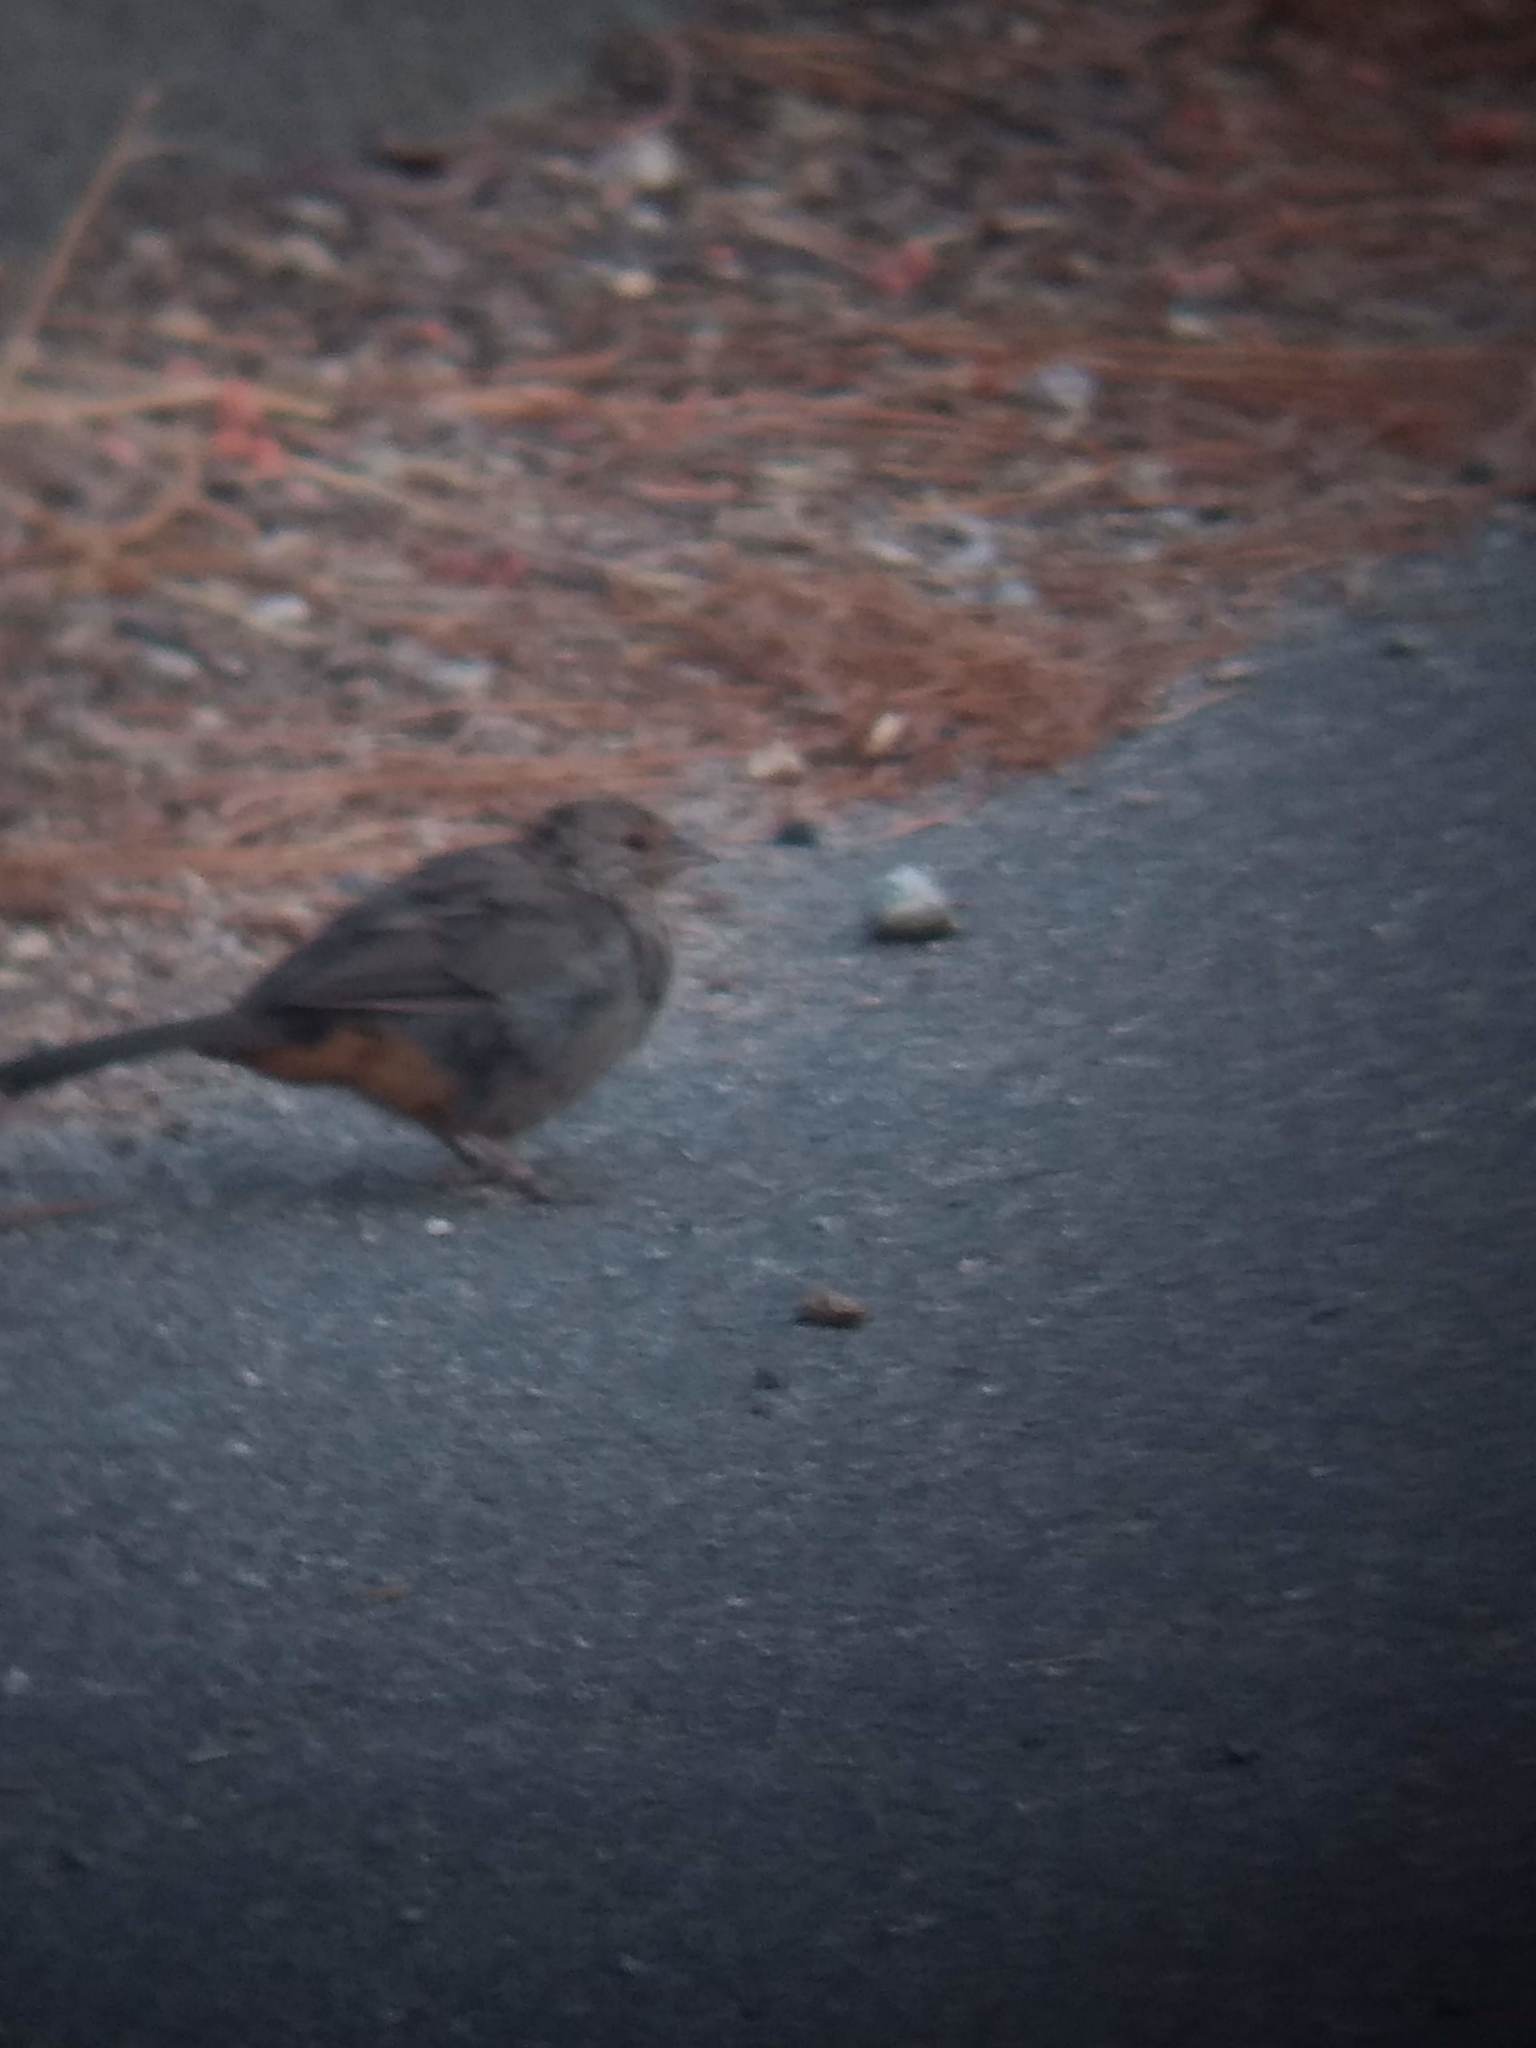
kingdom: Animalia
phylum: Chordata
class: Aves
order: Passeriformes
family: Passerellidae
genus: Melozone
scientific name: Melozone crissalis
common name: California towhee
